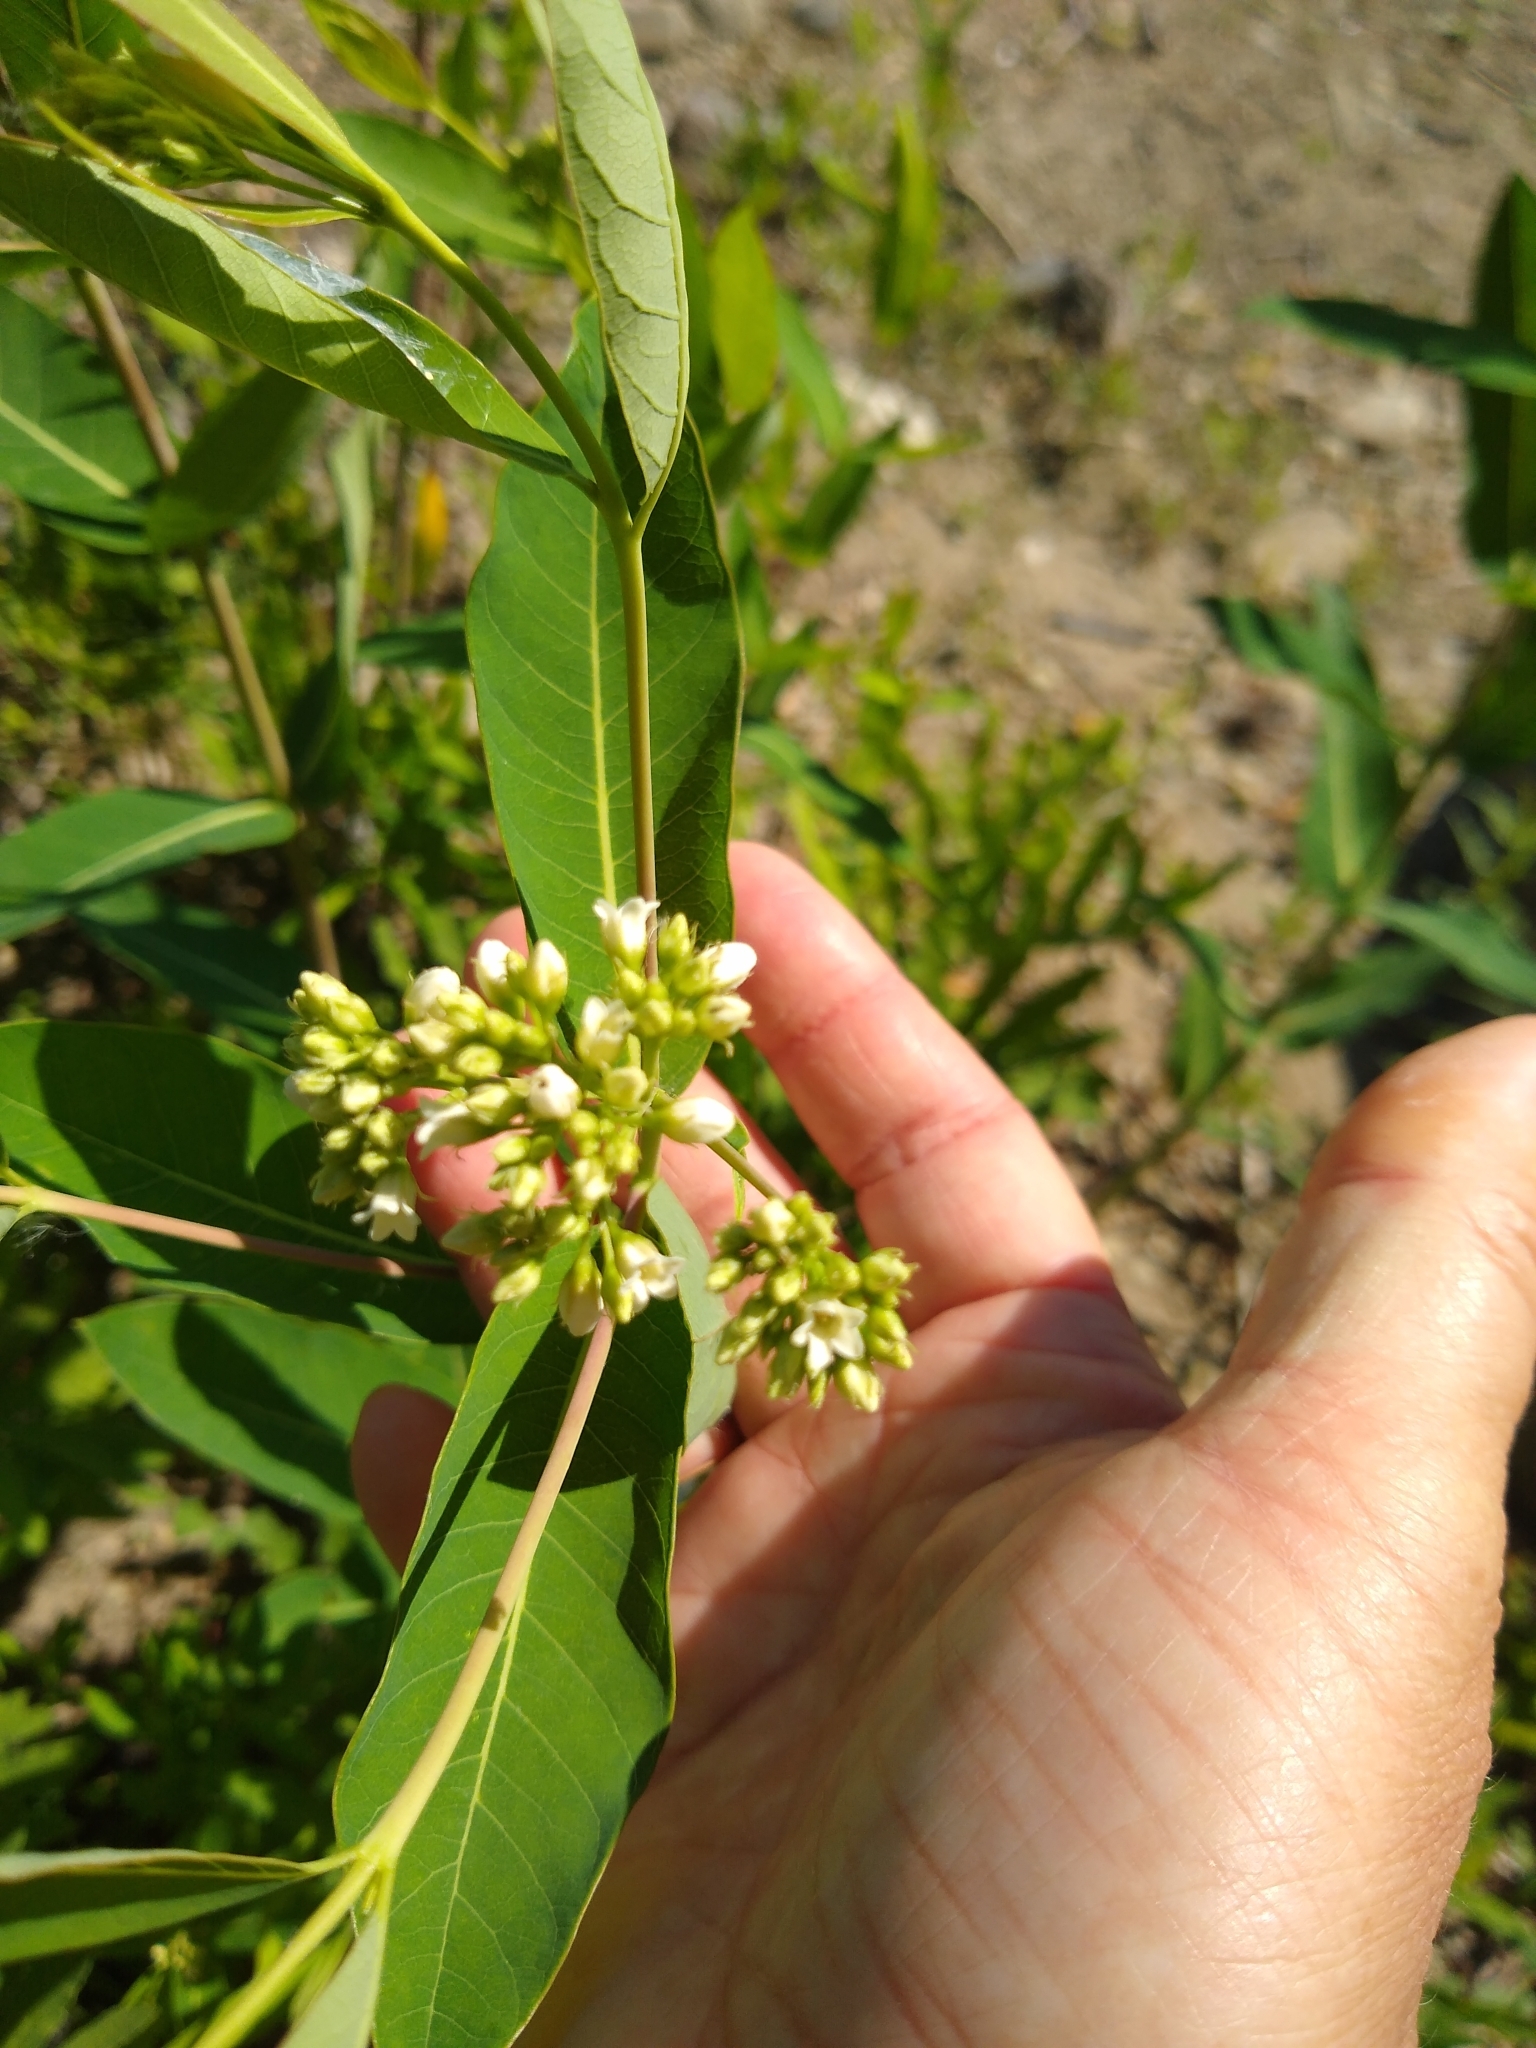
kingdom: Plantae
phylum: Tracheophyta
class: Magnoliopsida
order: Gentianales
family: Apocynaceae
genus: Apocynum
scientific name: Apocynum cannabinum
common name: Hemp dogbane
